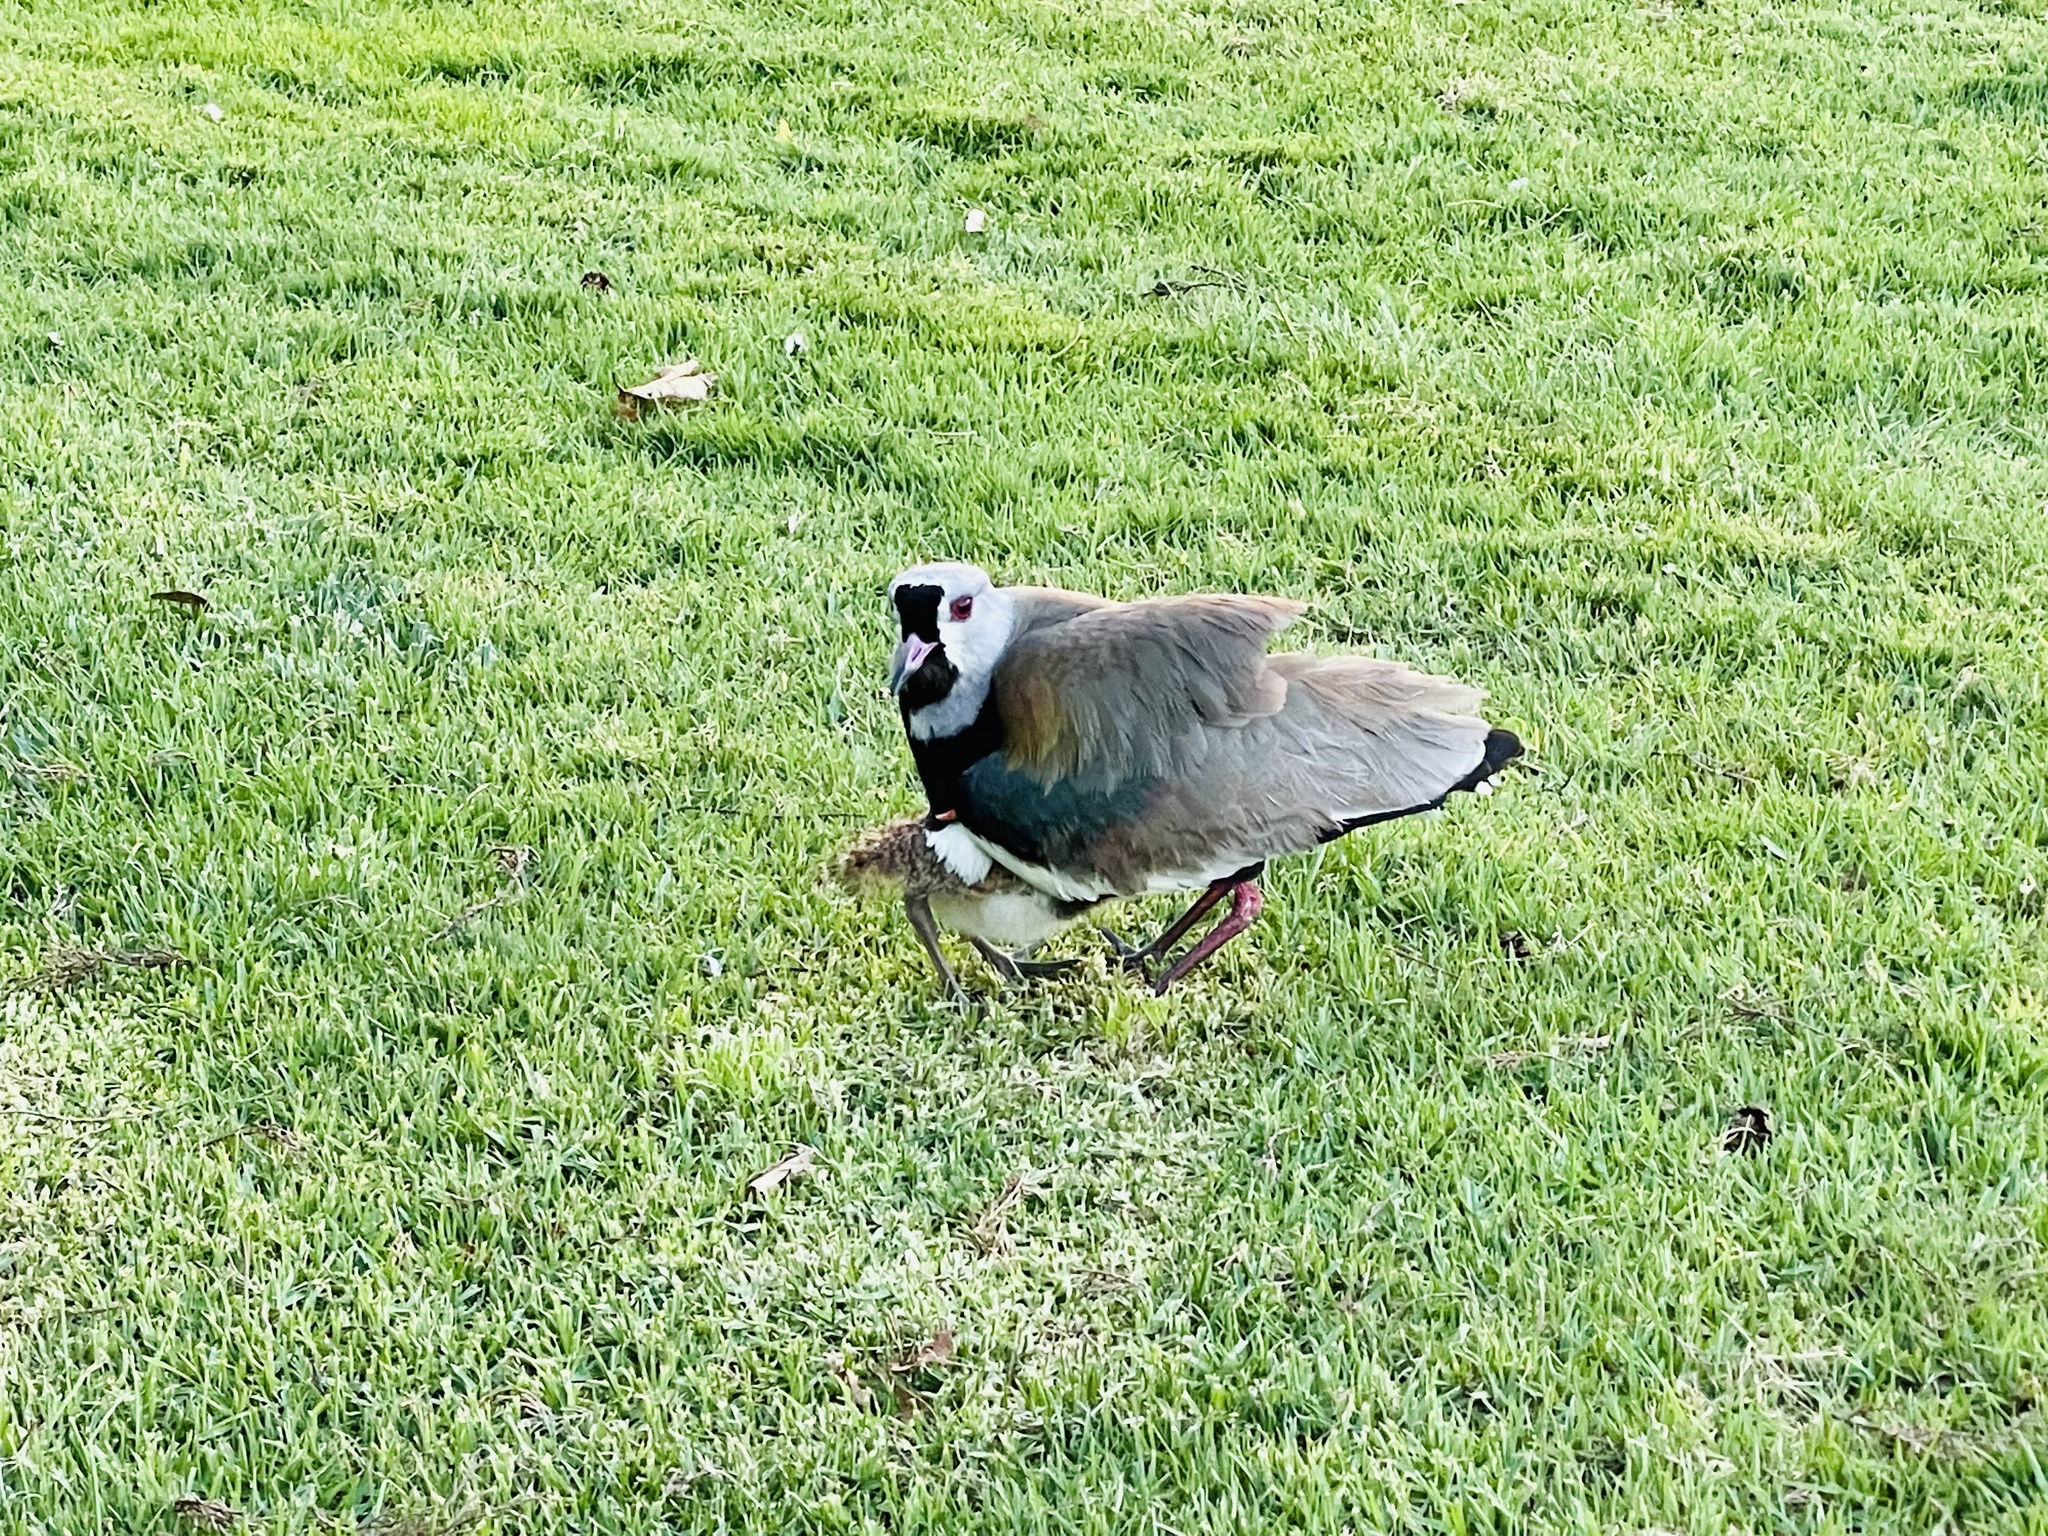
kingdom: Animalia
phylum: Chordata
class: Aves
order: Charadriiformes
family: Charadriidae
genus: Vanellus
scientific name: Vanellus chilensis
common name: Southern lapwing
